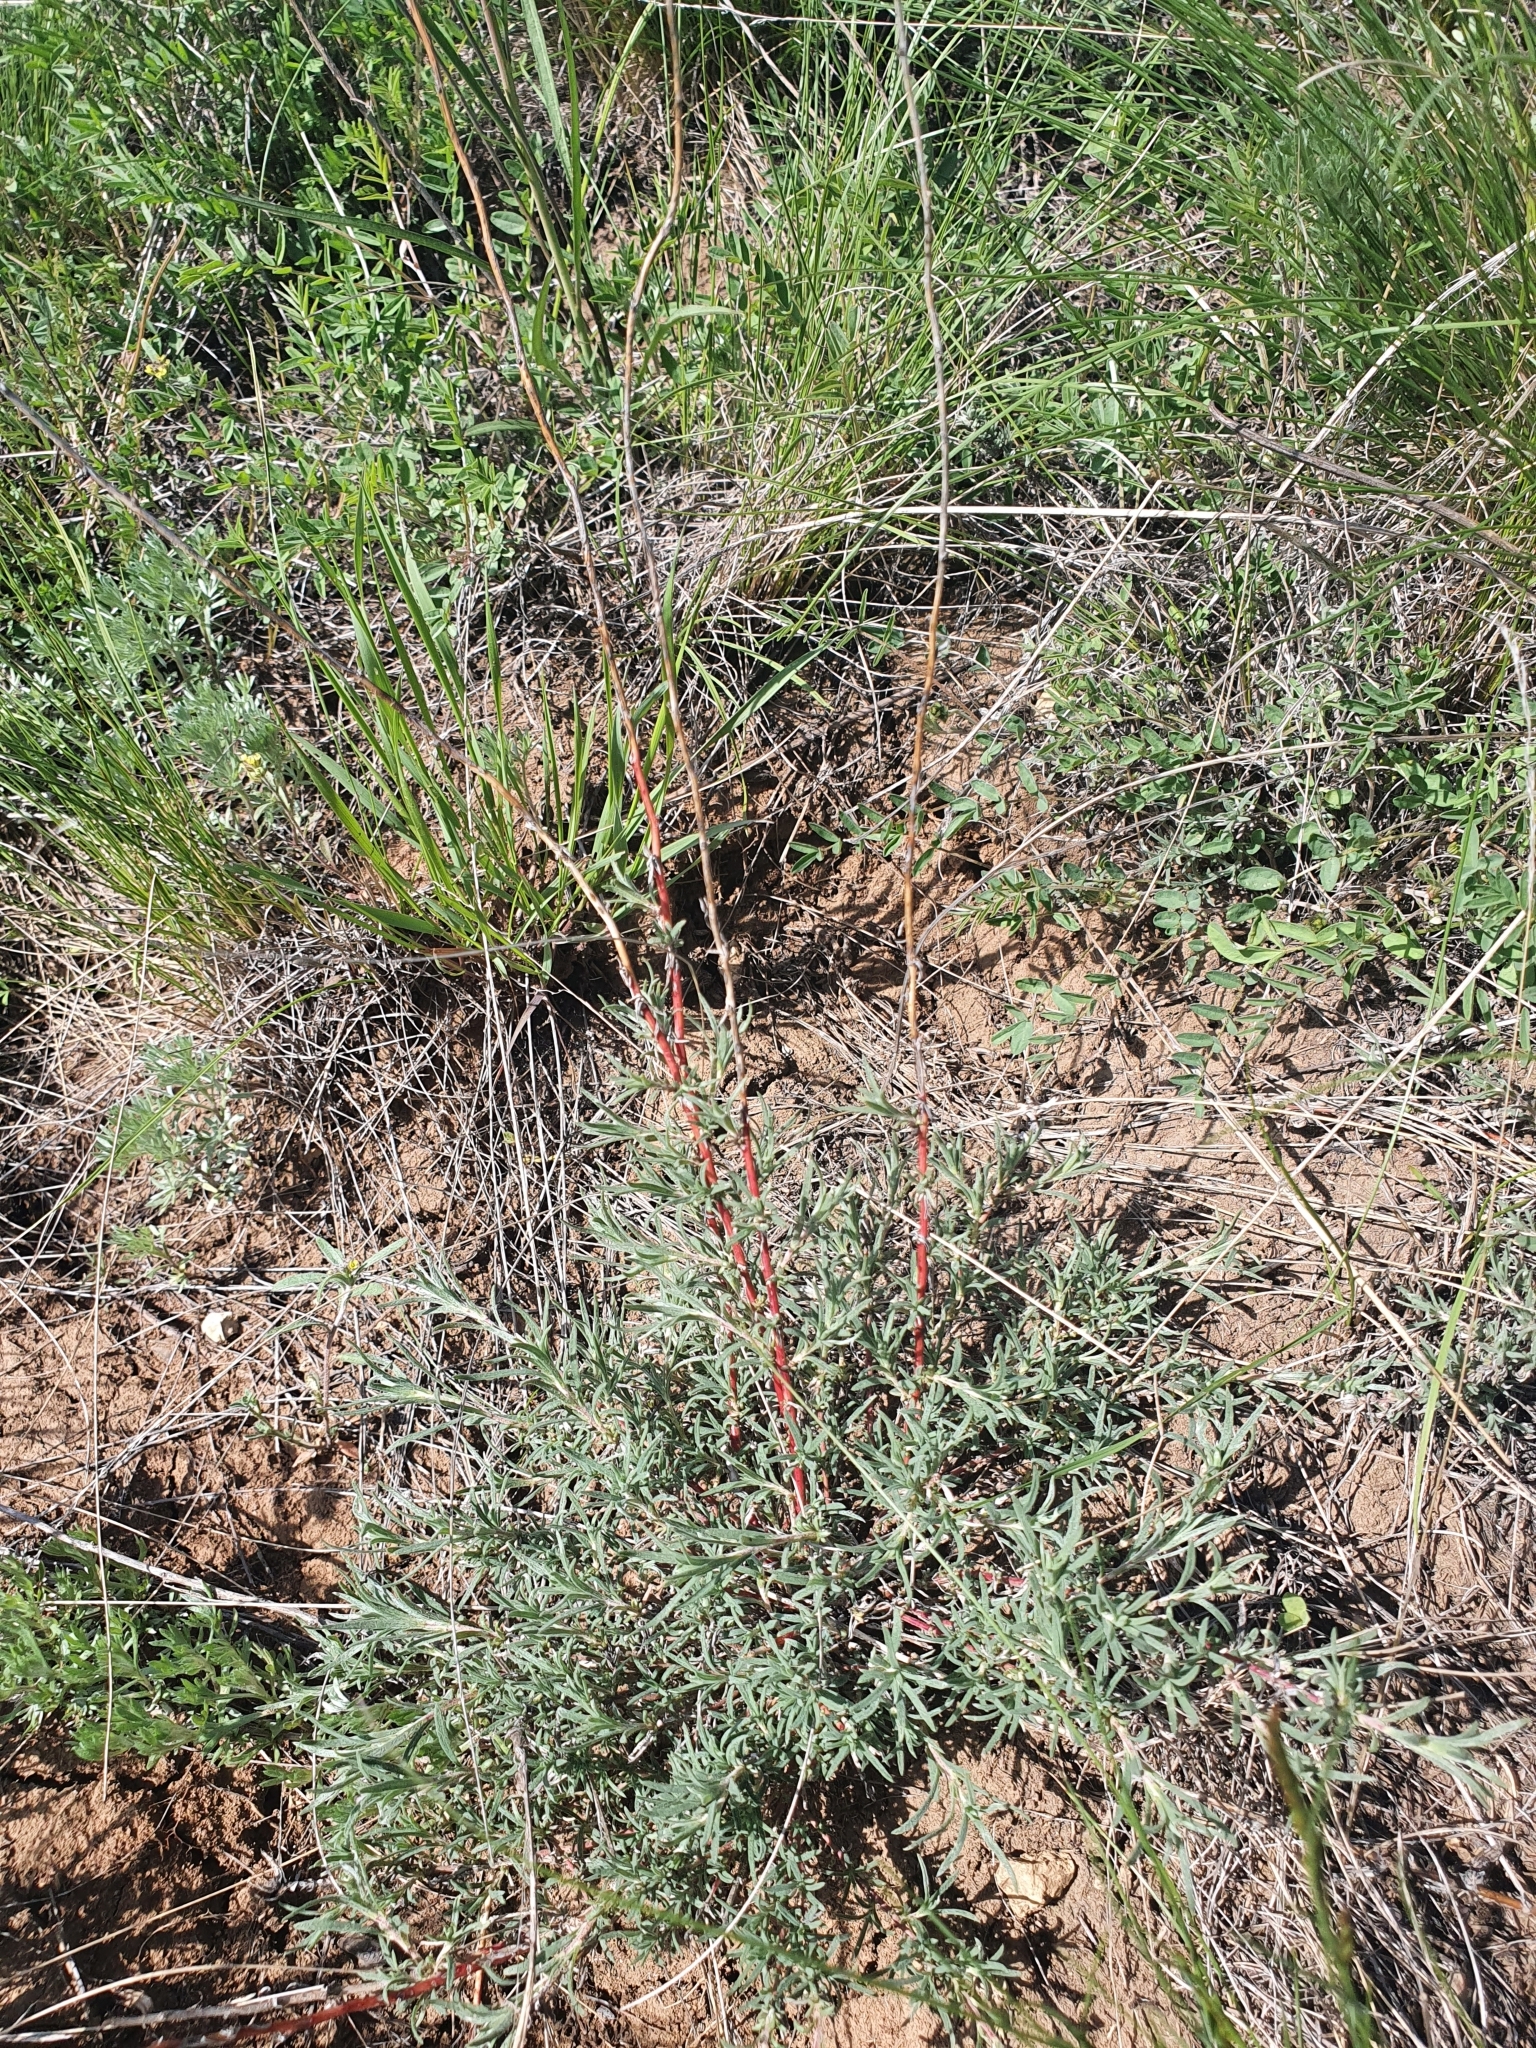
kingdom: Plantae
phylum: Tracheophyta
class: Magnoliopsida
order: Caryophyllales
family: Amaranthaceae
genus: Bassia
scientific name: Bassia prostrata
